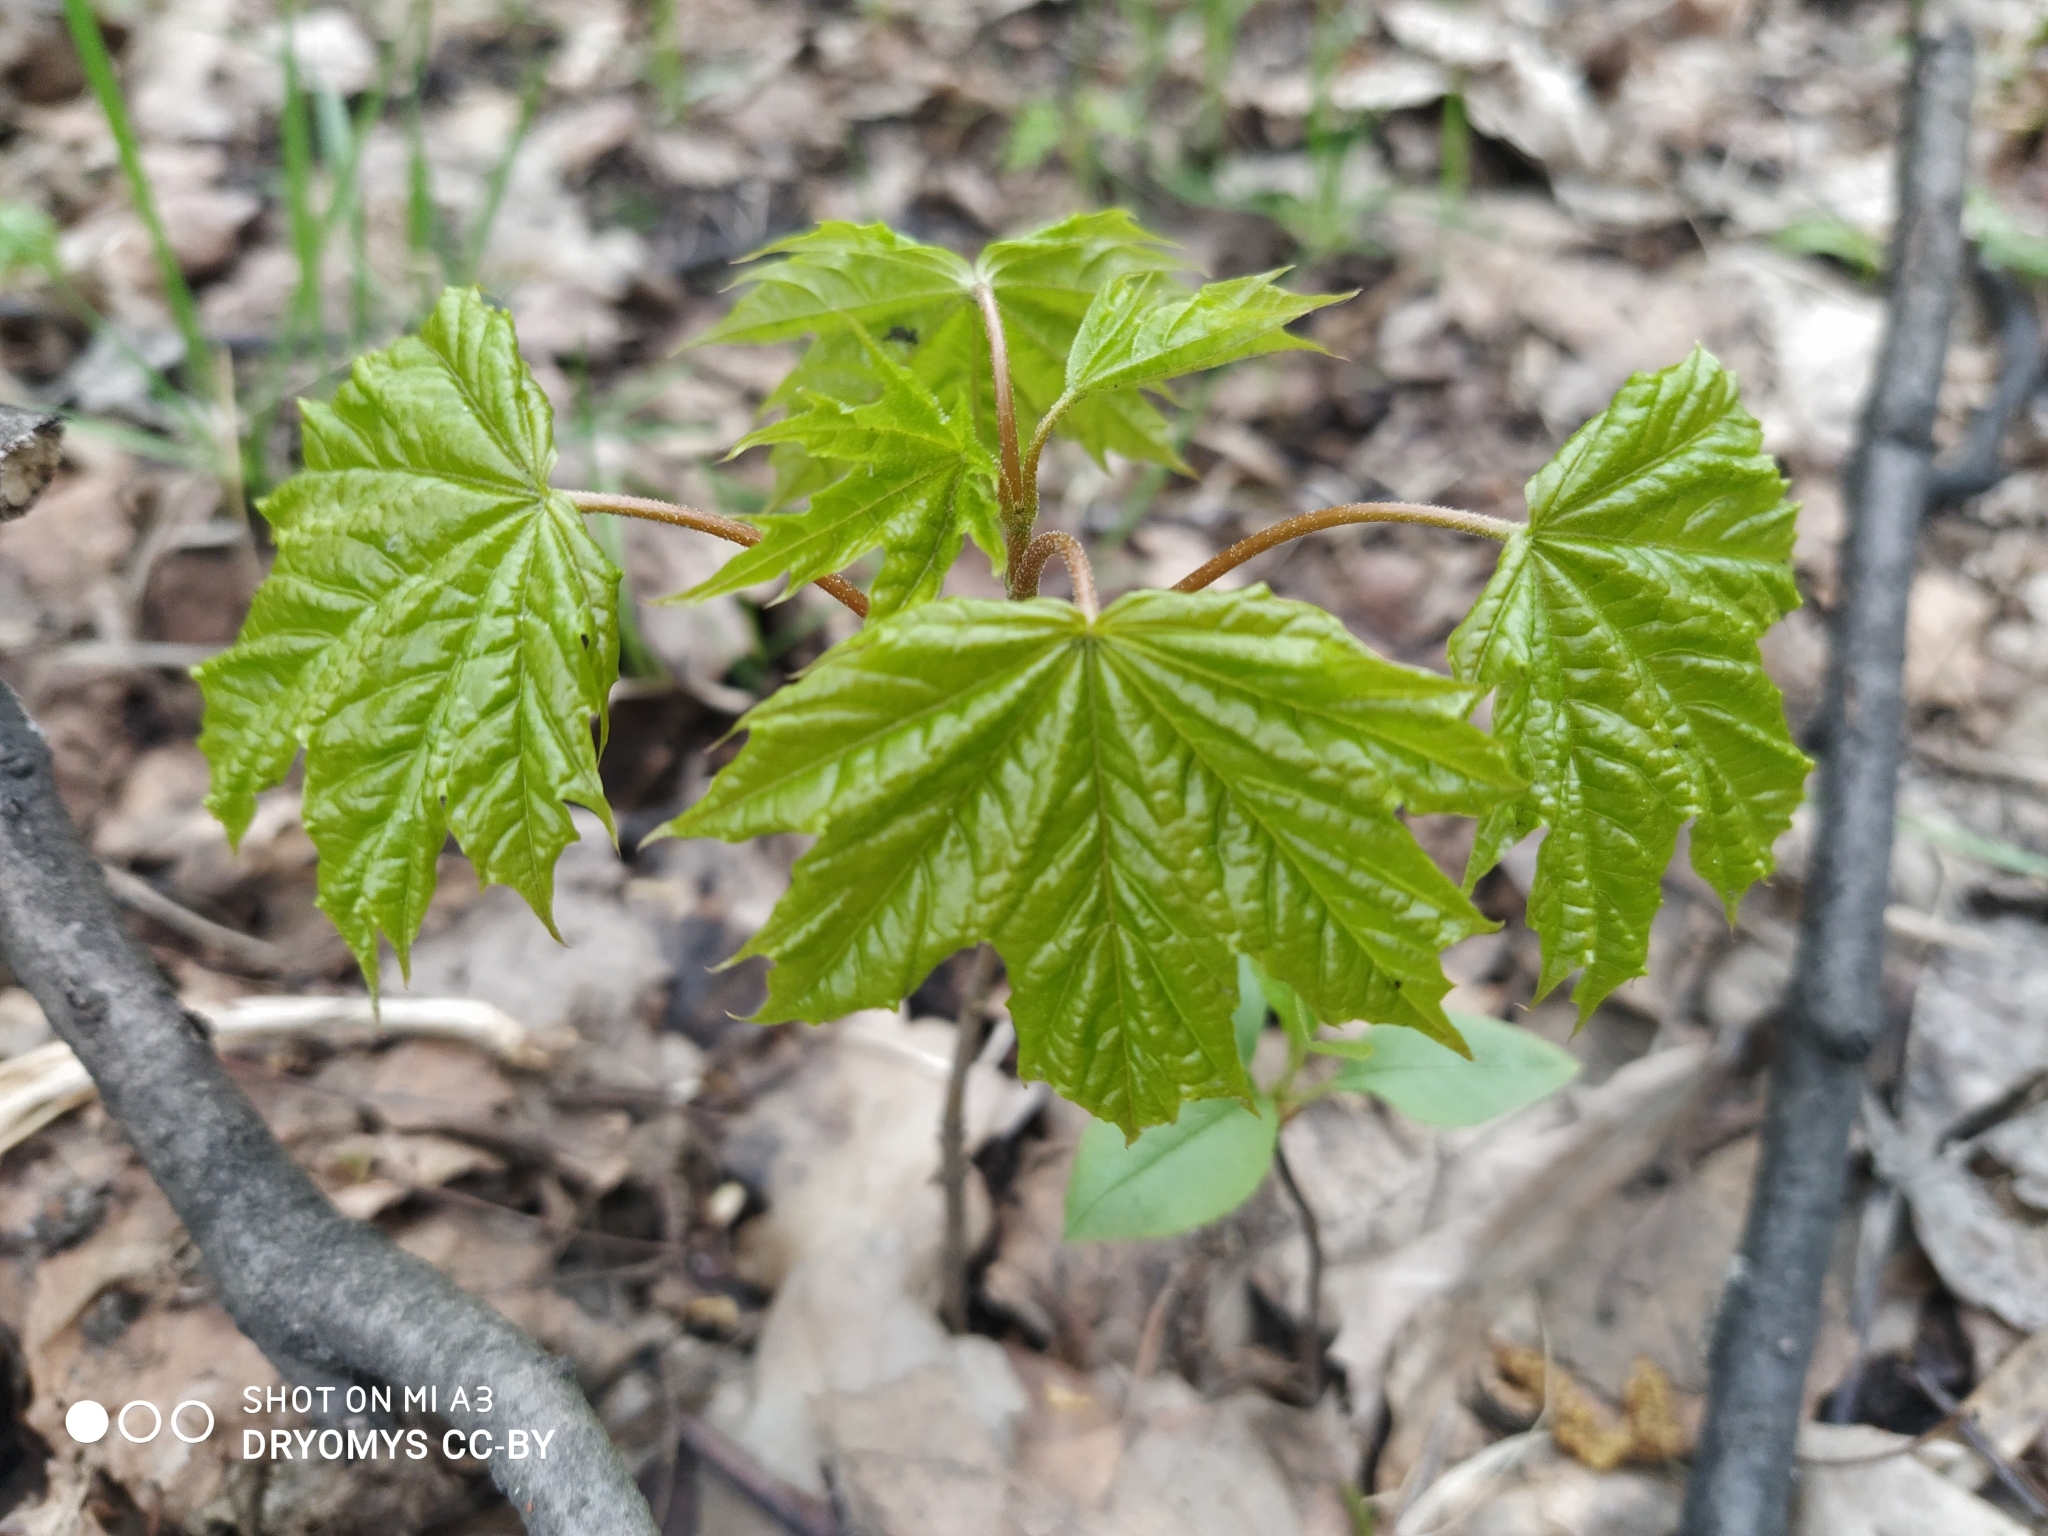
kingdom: Plantae
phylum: Tracheophyta
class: Magnoliopsida
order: Sapindales
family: Sapindaceae
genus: Acer
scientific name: Acer platanoides
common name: Norway maple
